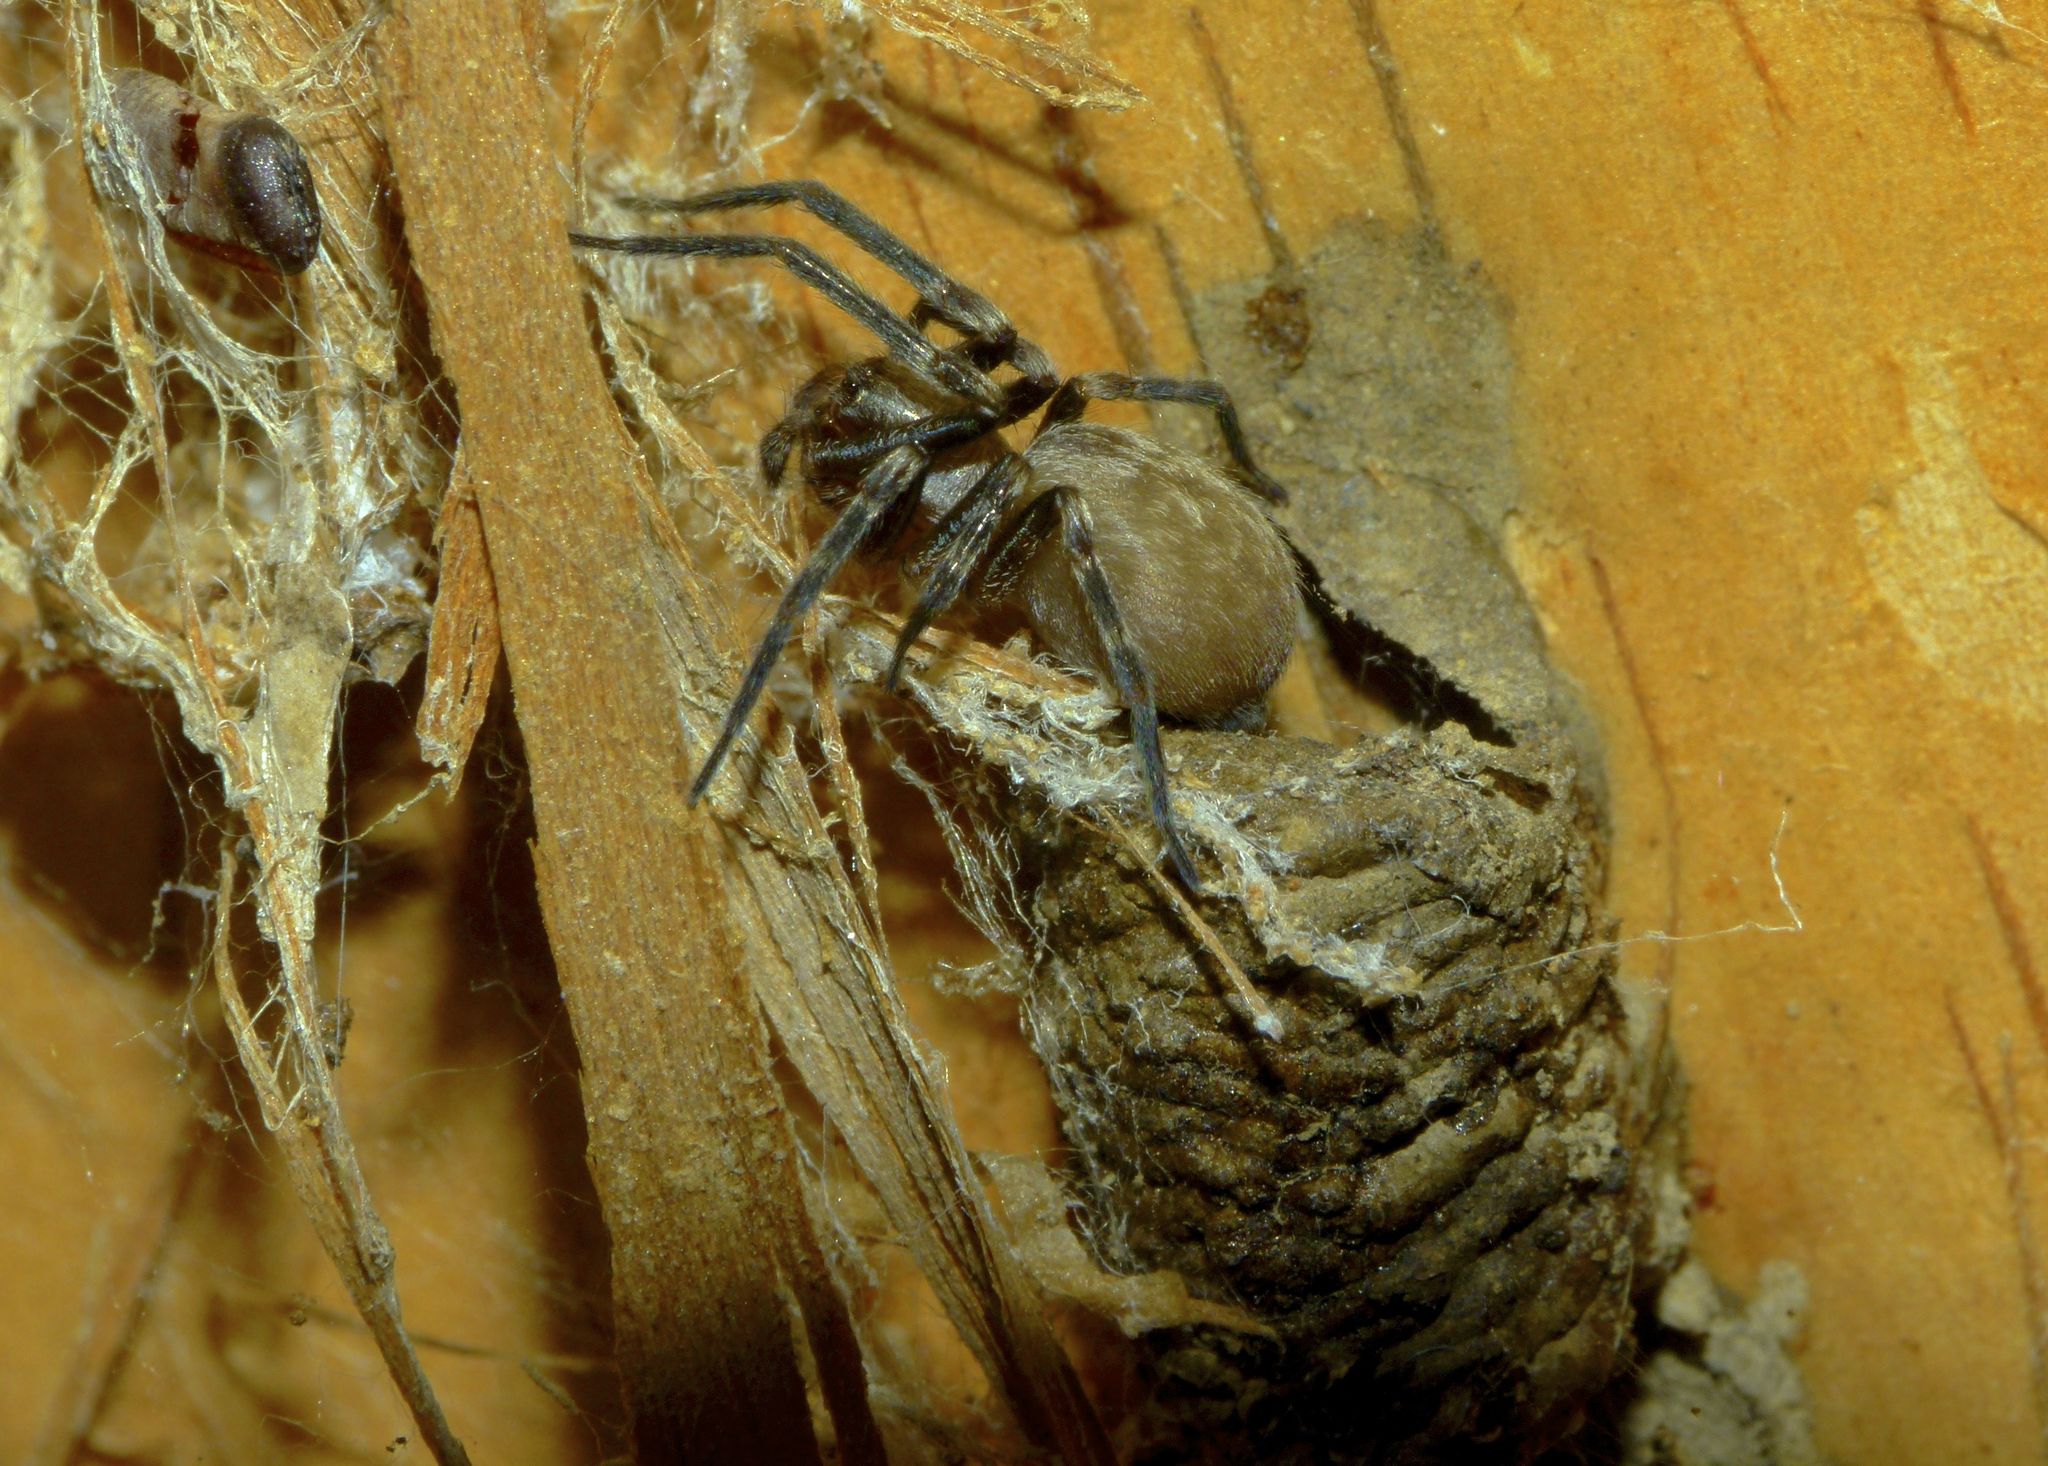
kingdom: Animalia
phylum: Arthropoda
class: Arachnida
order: Araneae
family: Desidae
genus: Badumna
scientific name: Badumna longinqua
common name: Gray house spider
